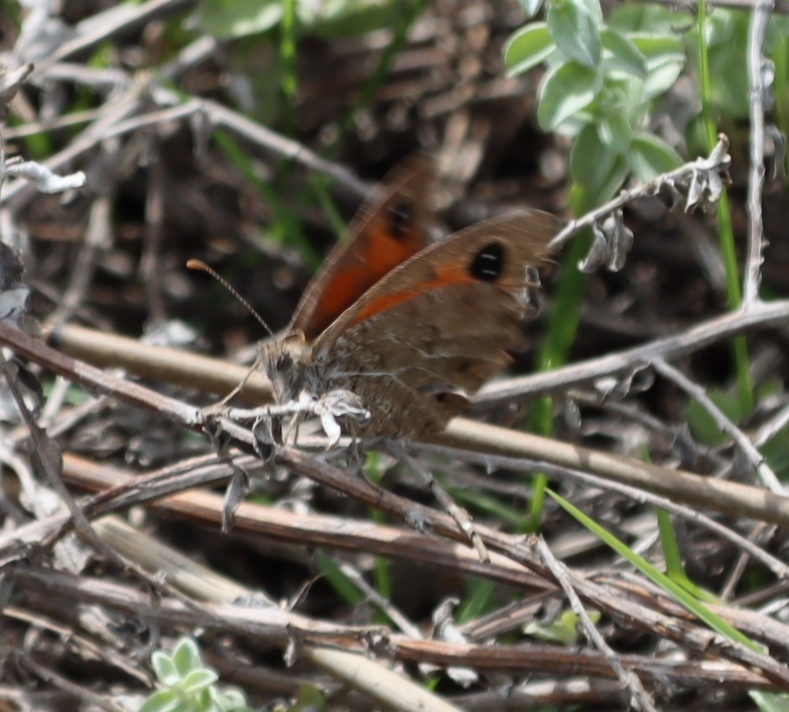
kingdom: Animalia
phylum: Arthropoda
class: Insecta
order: Lepidoptera
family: Nymphalidae
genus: Pseudonympha
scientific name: Pseudonympha magus
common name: Silver-bottom brown
